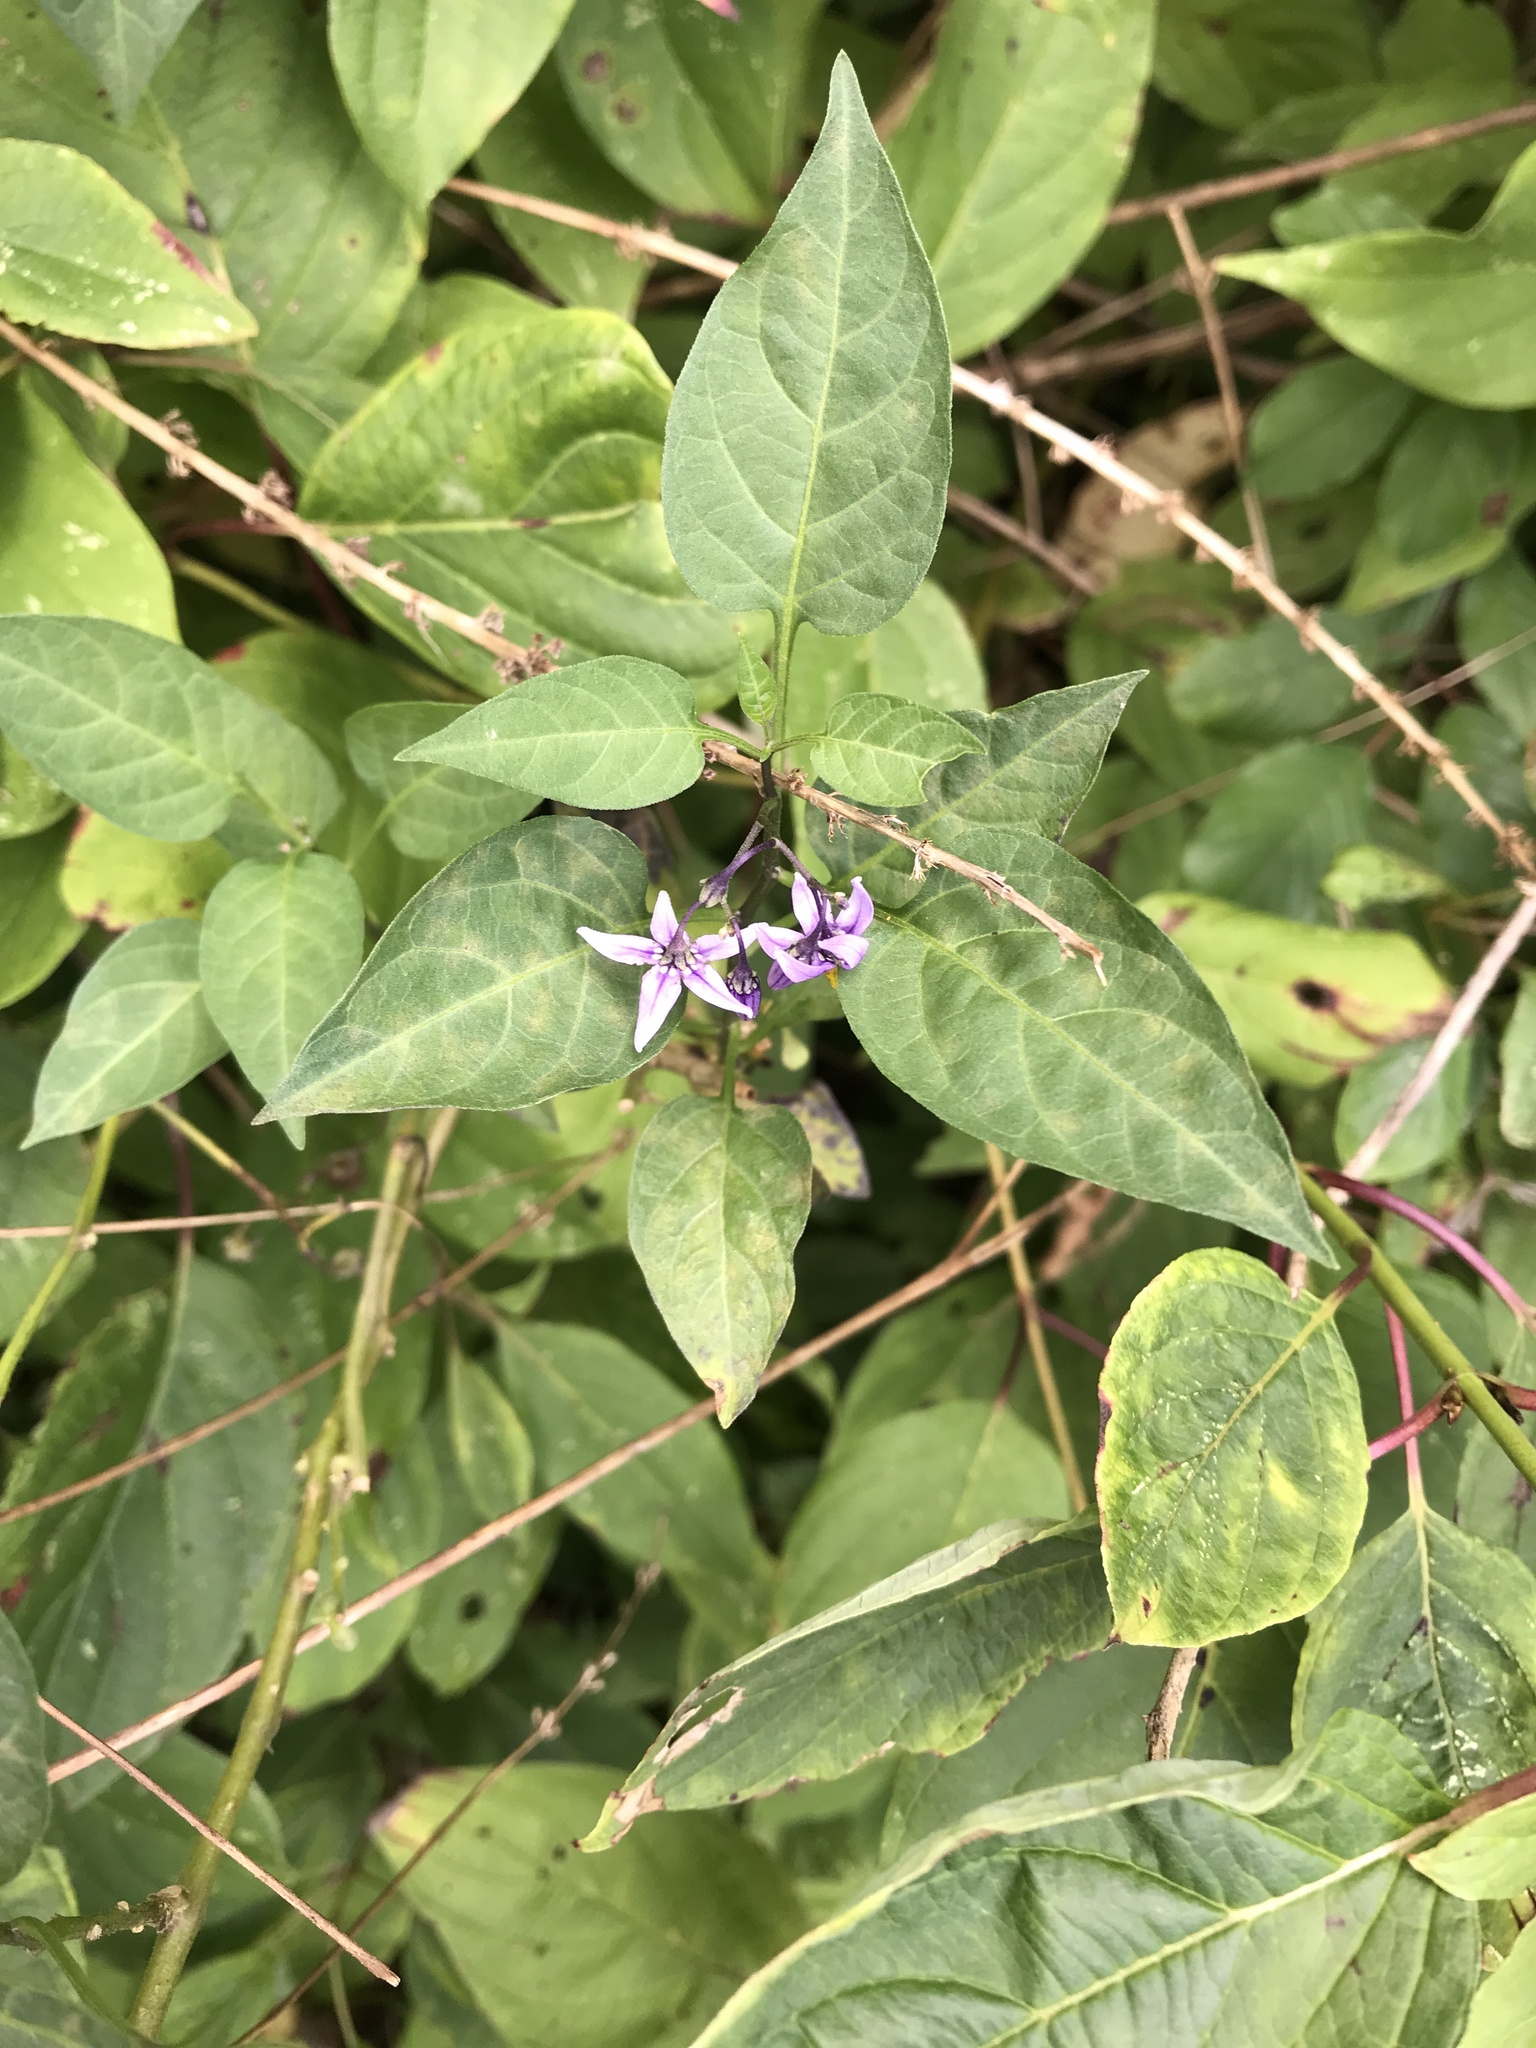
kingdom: Plantae
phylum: Tracheophyta
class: Magnoliopsida
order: Solanales
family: Solanaceae
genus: Solanum
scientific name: Solanum dulcamara
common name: Climbing nightshade
